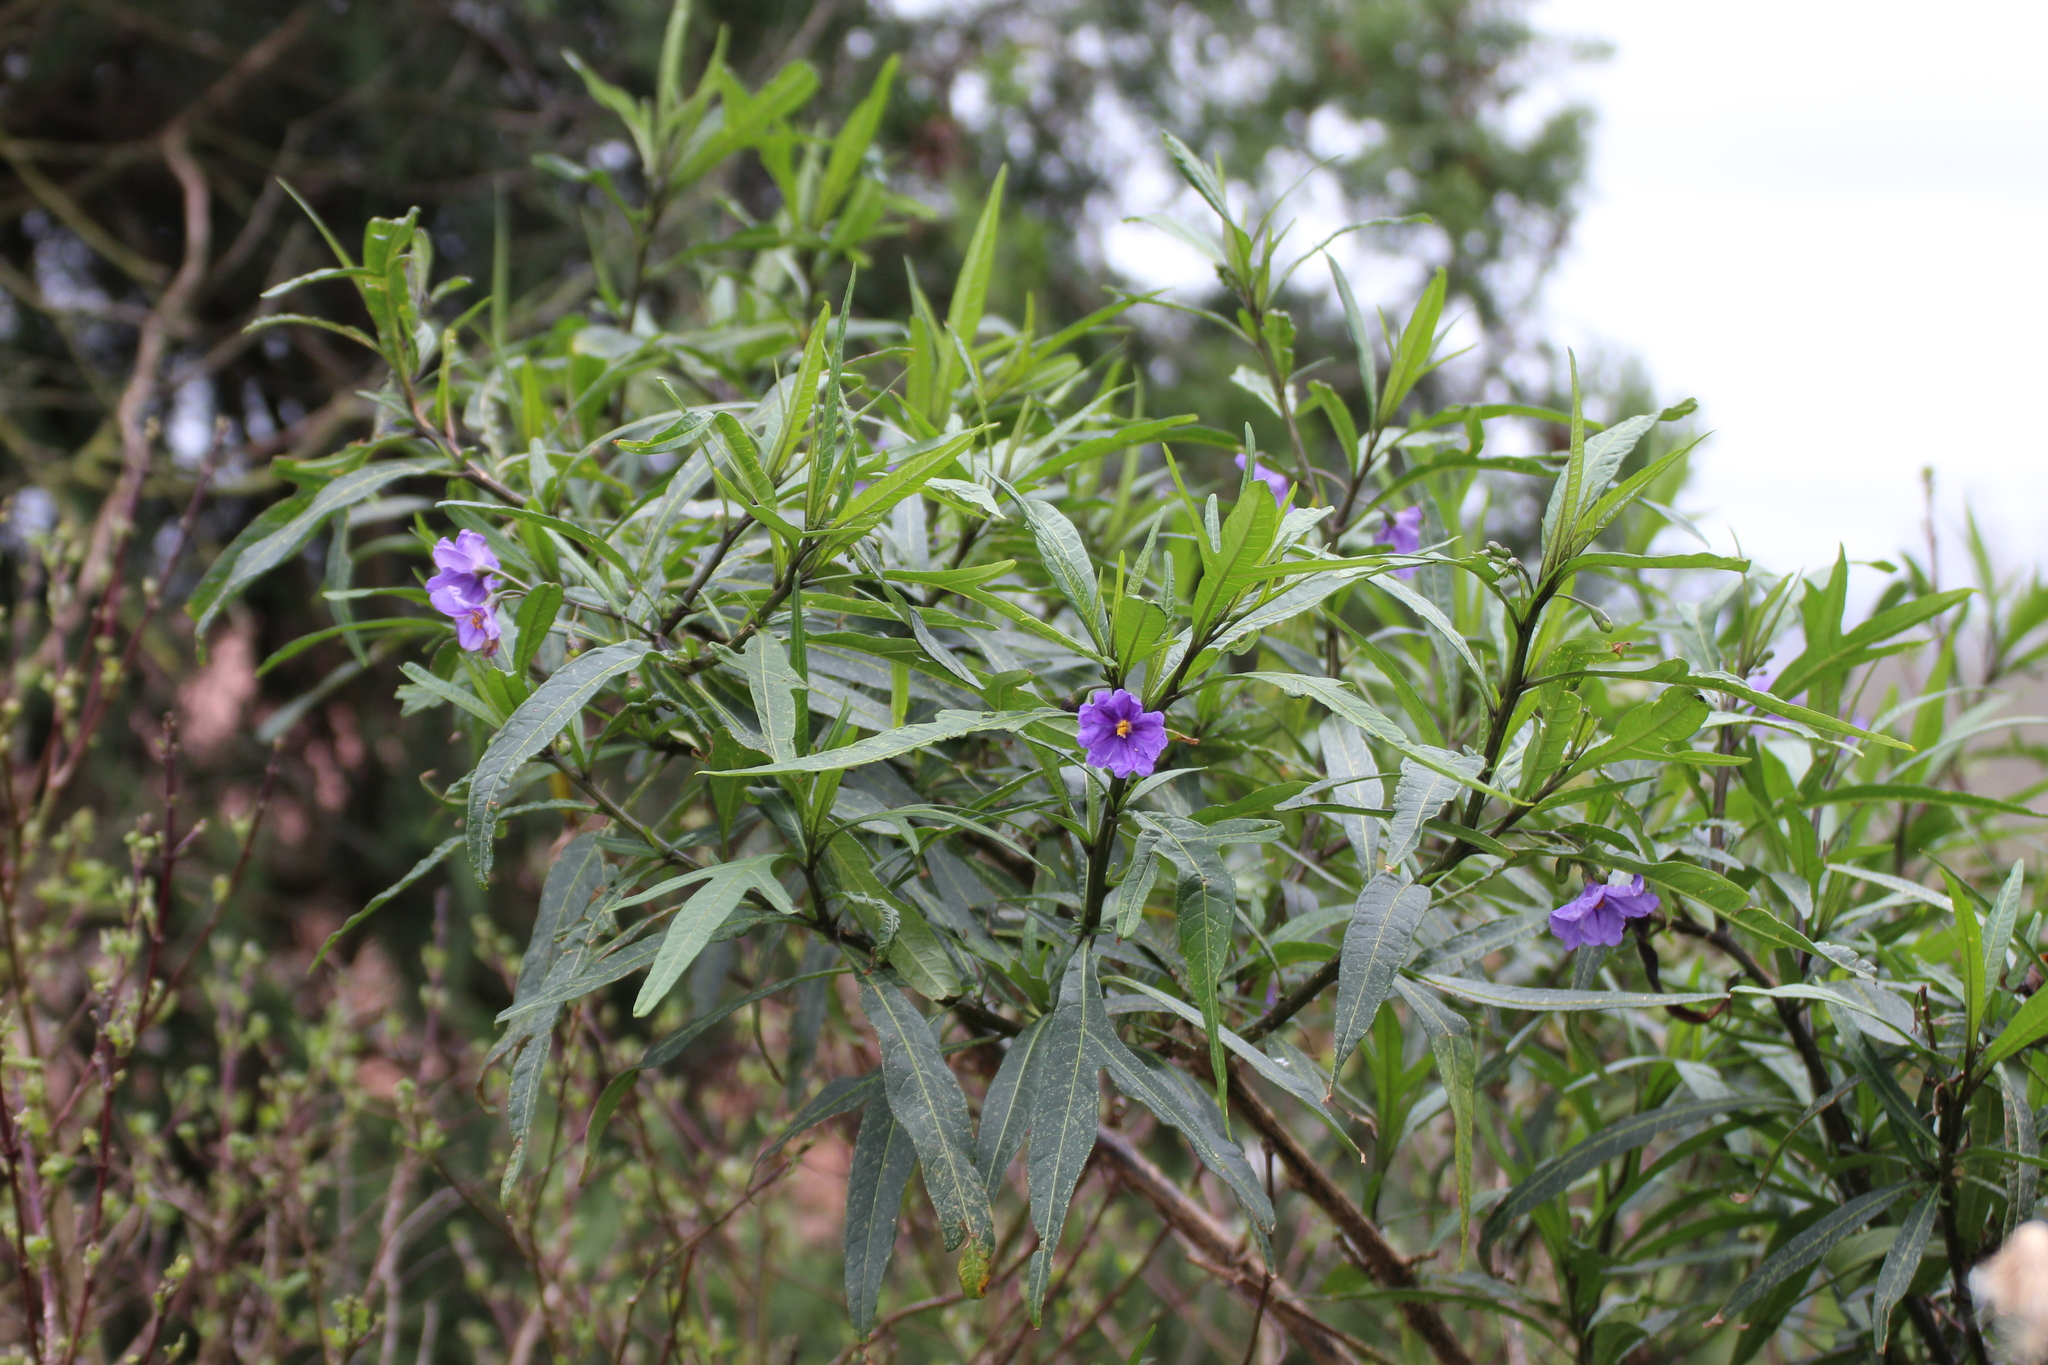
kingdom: Plantae
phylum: Tracheophyta
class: Magnoliopsida
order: Solanales
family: Solanaceae
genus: Solanum
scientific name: Solanum laciniatum
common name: Kangaroo-apple
